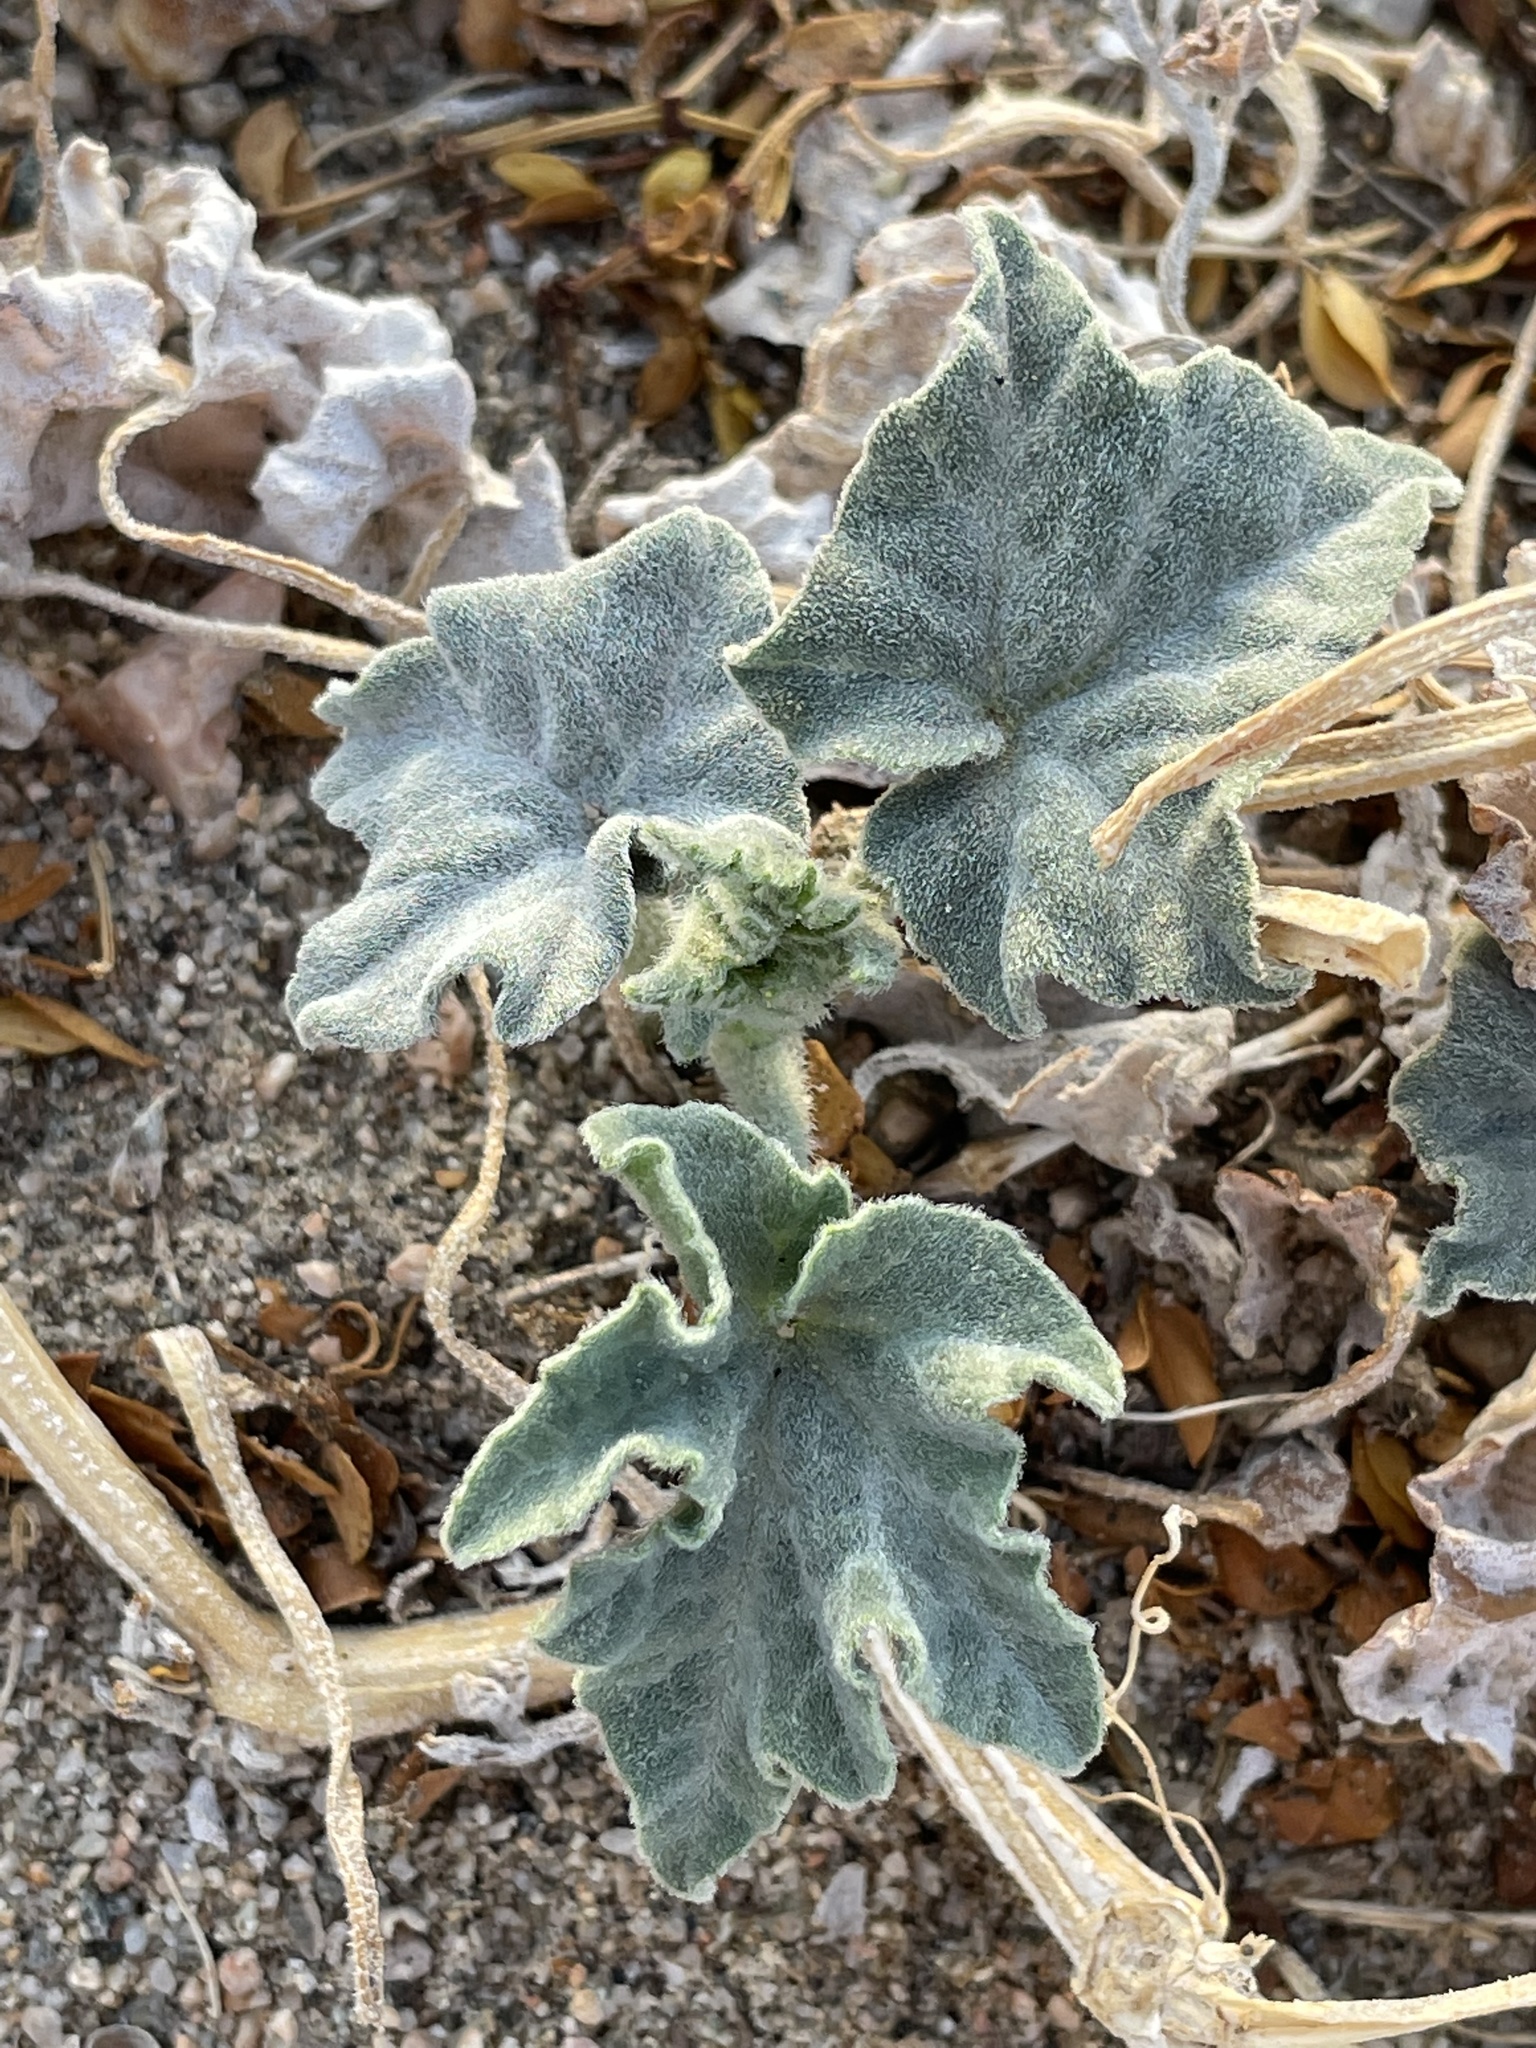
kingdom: Plantae
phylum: Tracheophyta
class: Magnoliopsida
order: Cucurbitales
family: Cucurbitaceae
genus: Cucurbita
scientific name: Cucurbita palmata
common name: Coyote-melon
